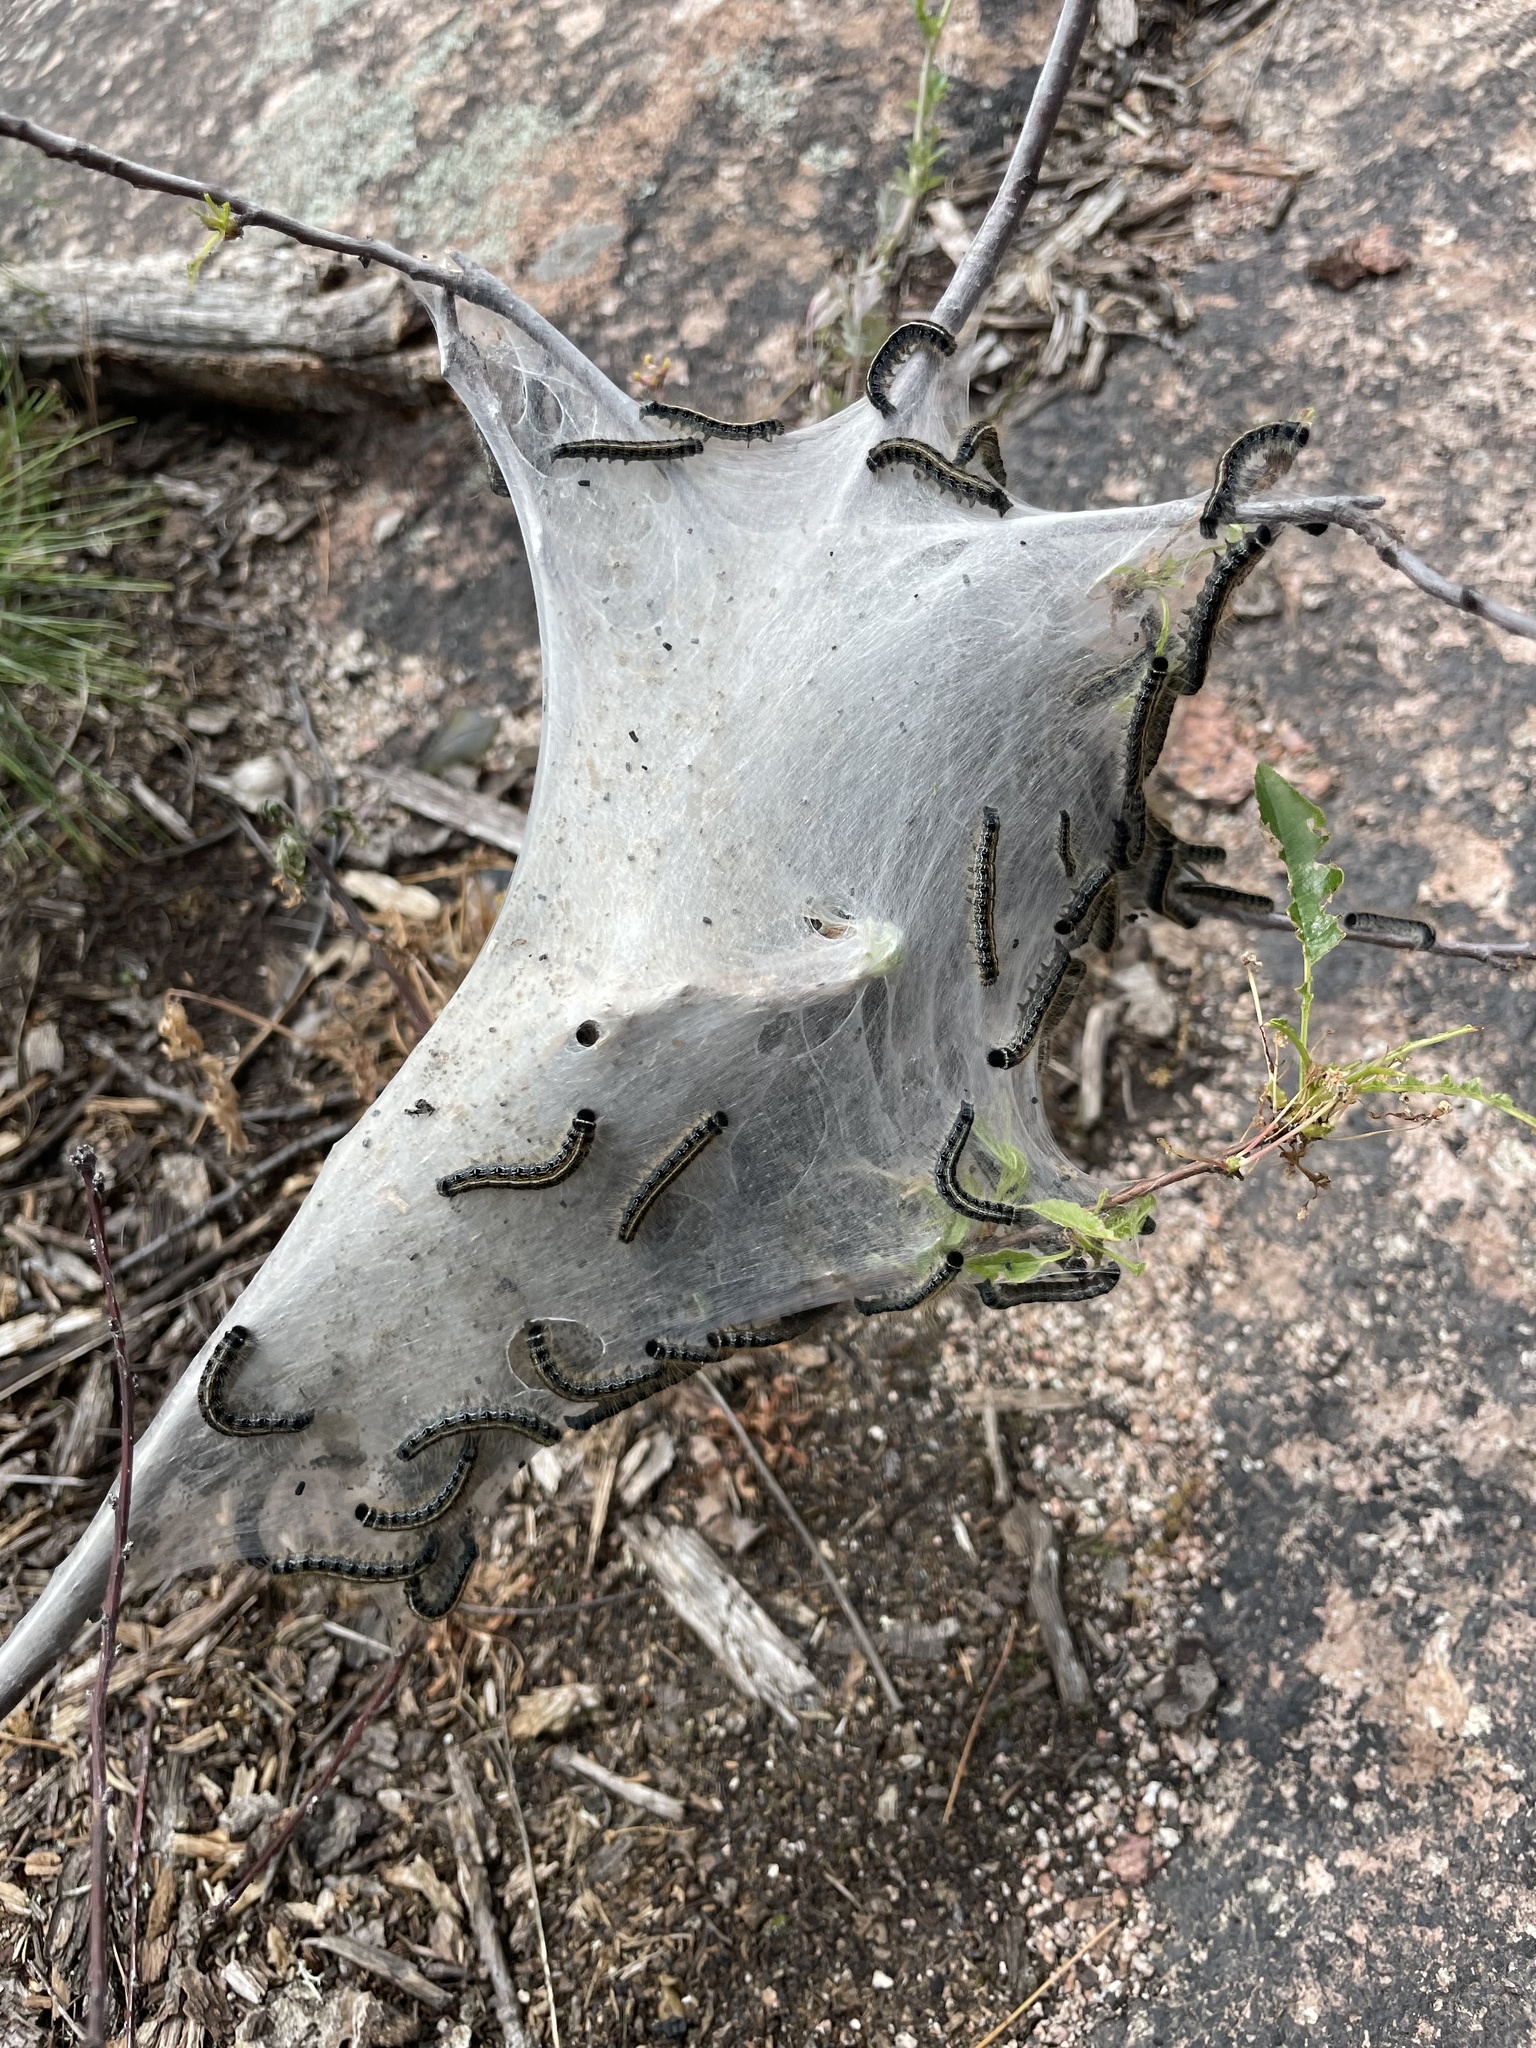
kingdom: Animalia
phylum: Arthropoda
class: Insecta
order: Lepidoptera
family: Lasiocampidae
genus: Malacosoma
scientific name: Malacosoma americana
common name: Eastern tent caterpillar moth
